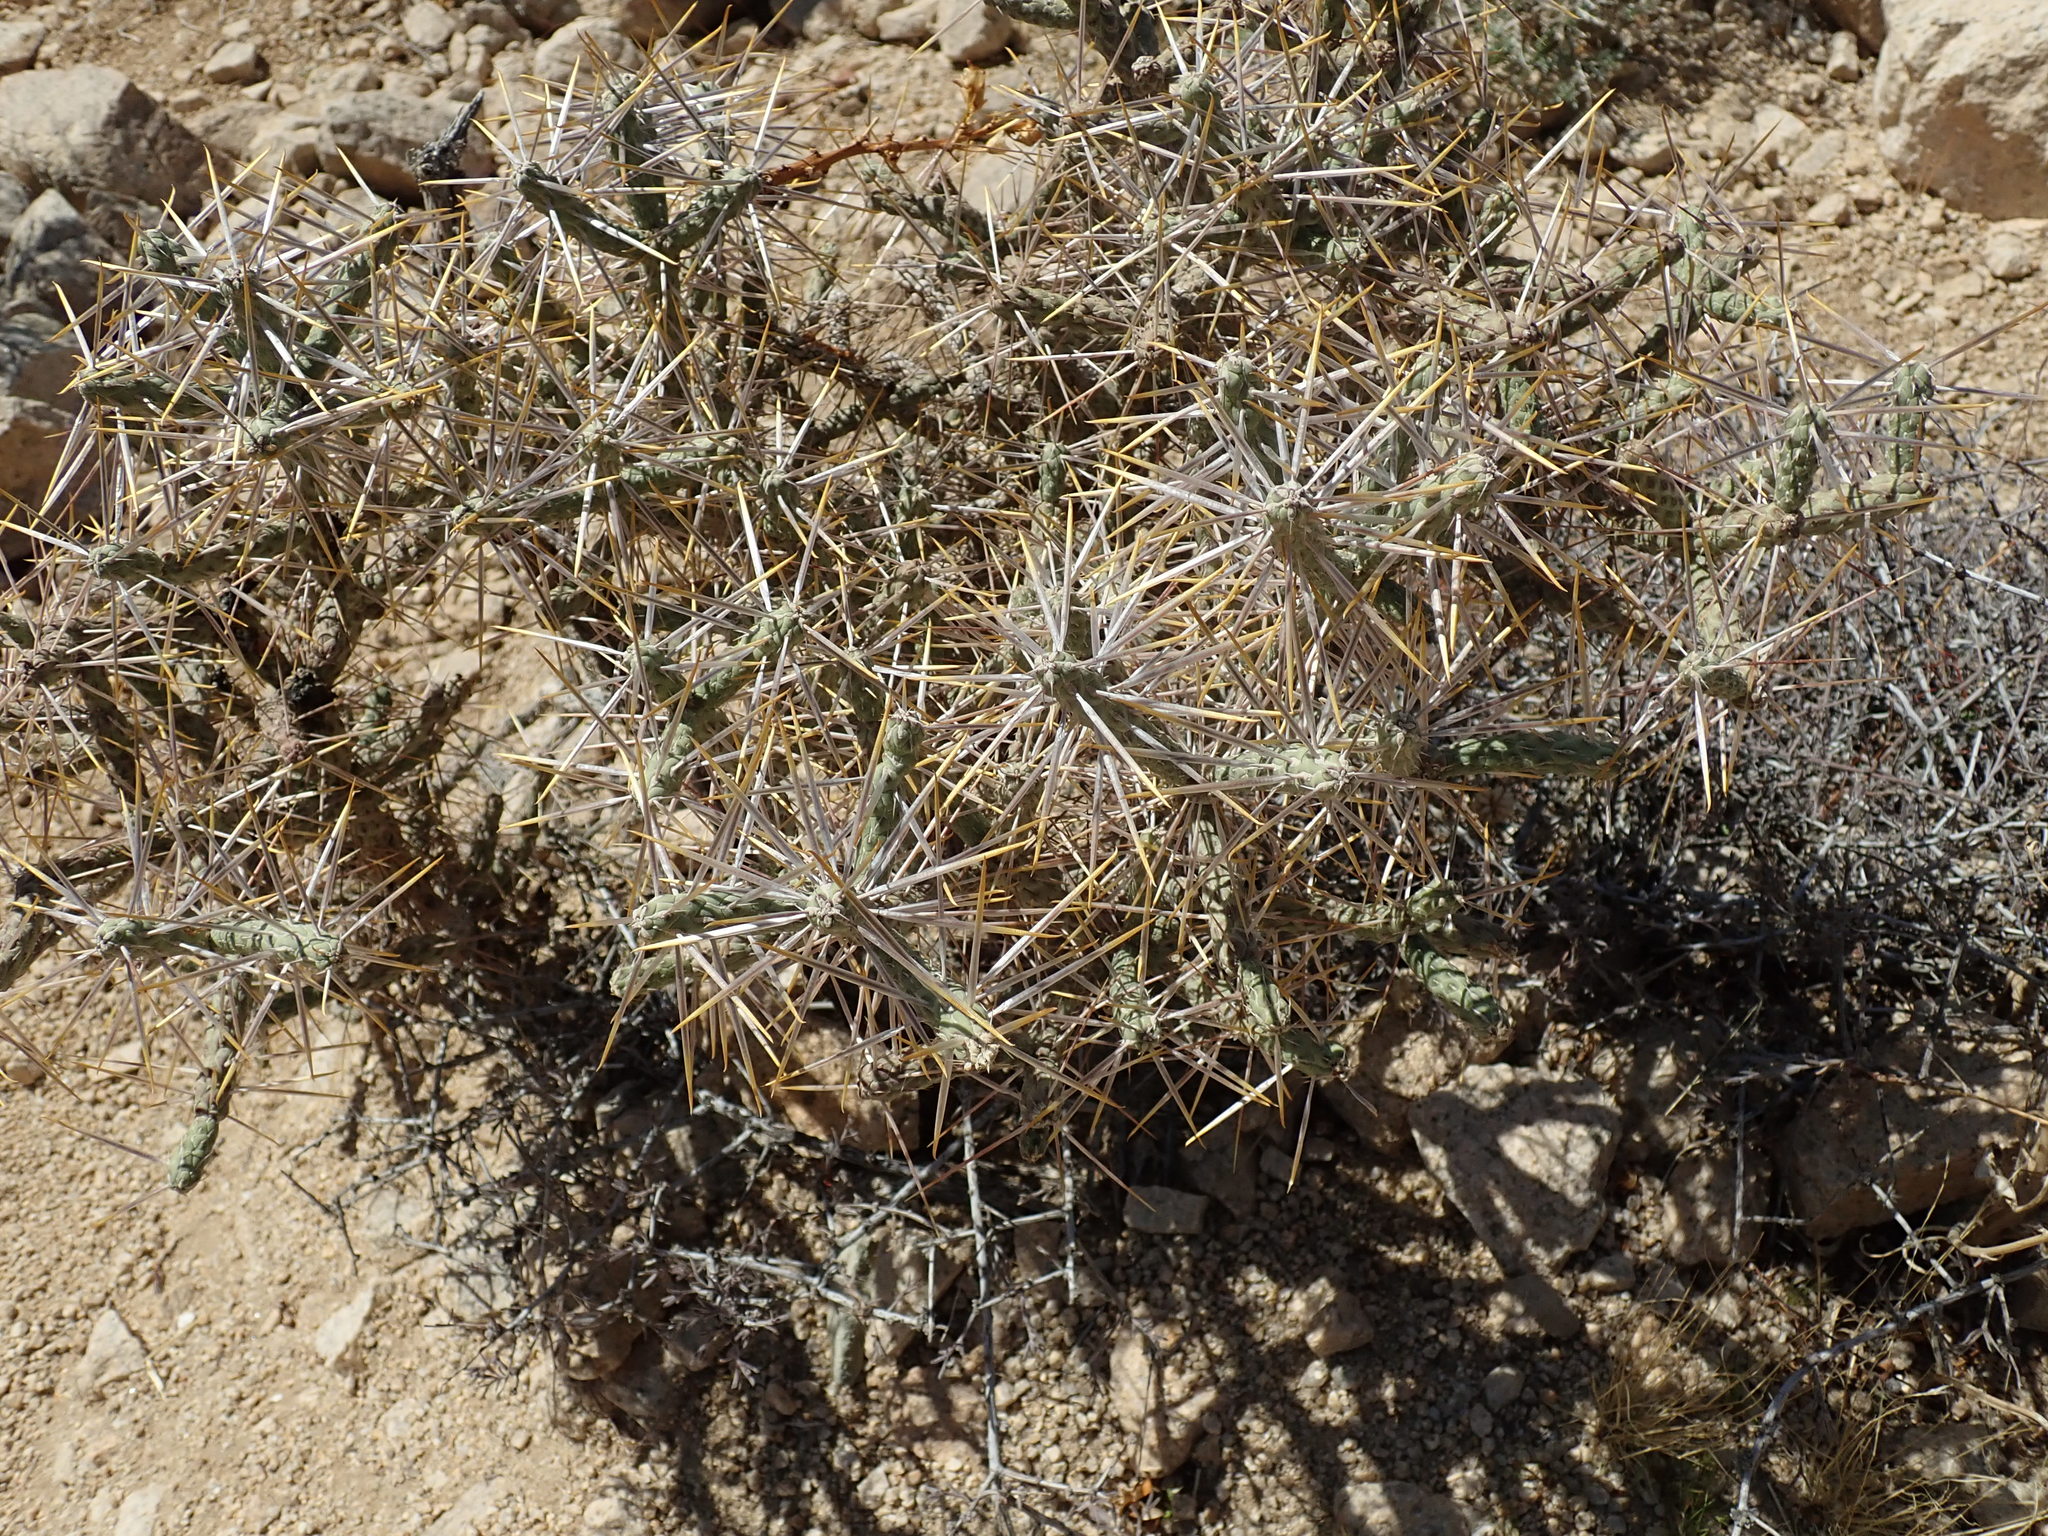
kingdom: Plantae
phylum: Tracheophyta
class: Magnoliopsida
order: Caryophyllales
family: Cactaceae
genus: Cylindropuntia
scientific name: Cylindropuntia ramosissima
